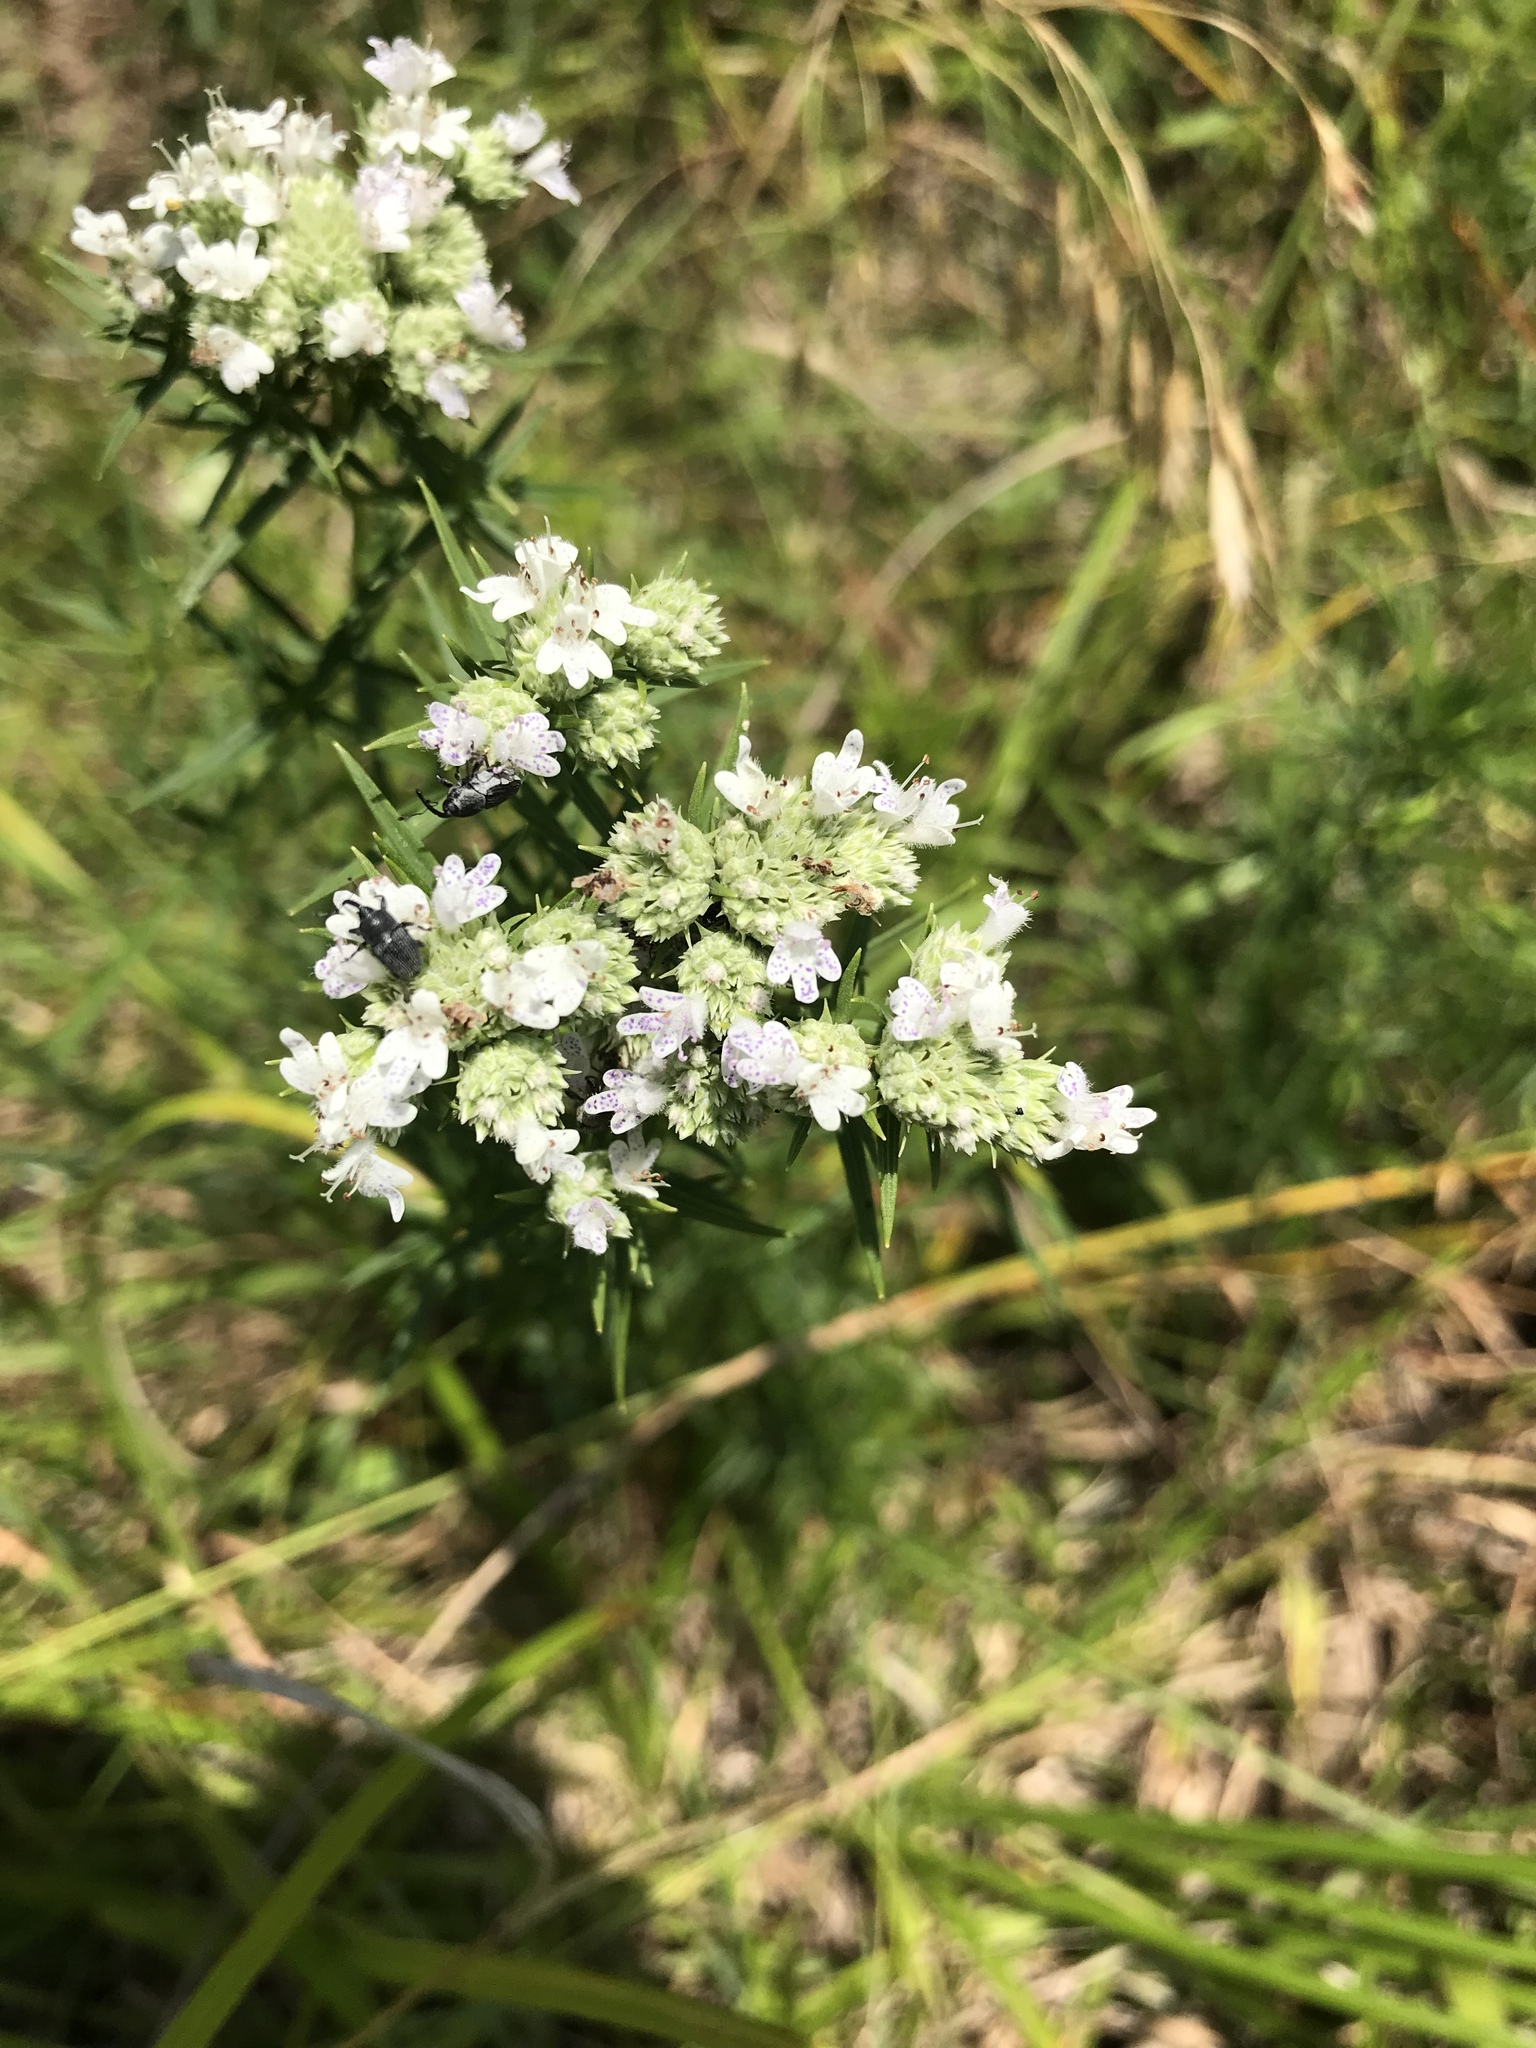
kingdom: Plantae
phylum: Tracheophyta
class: Magnoliopsida
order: Lamiales
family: Lamiaceae
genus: Pycnanthemum
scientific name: Pycnanthemum tenuifolium
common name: Narrow-leaf mountain-mint
